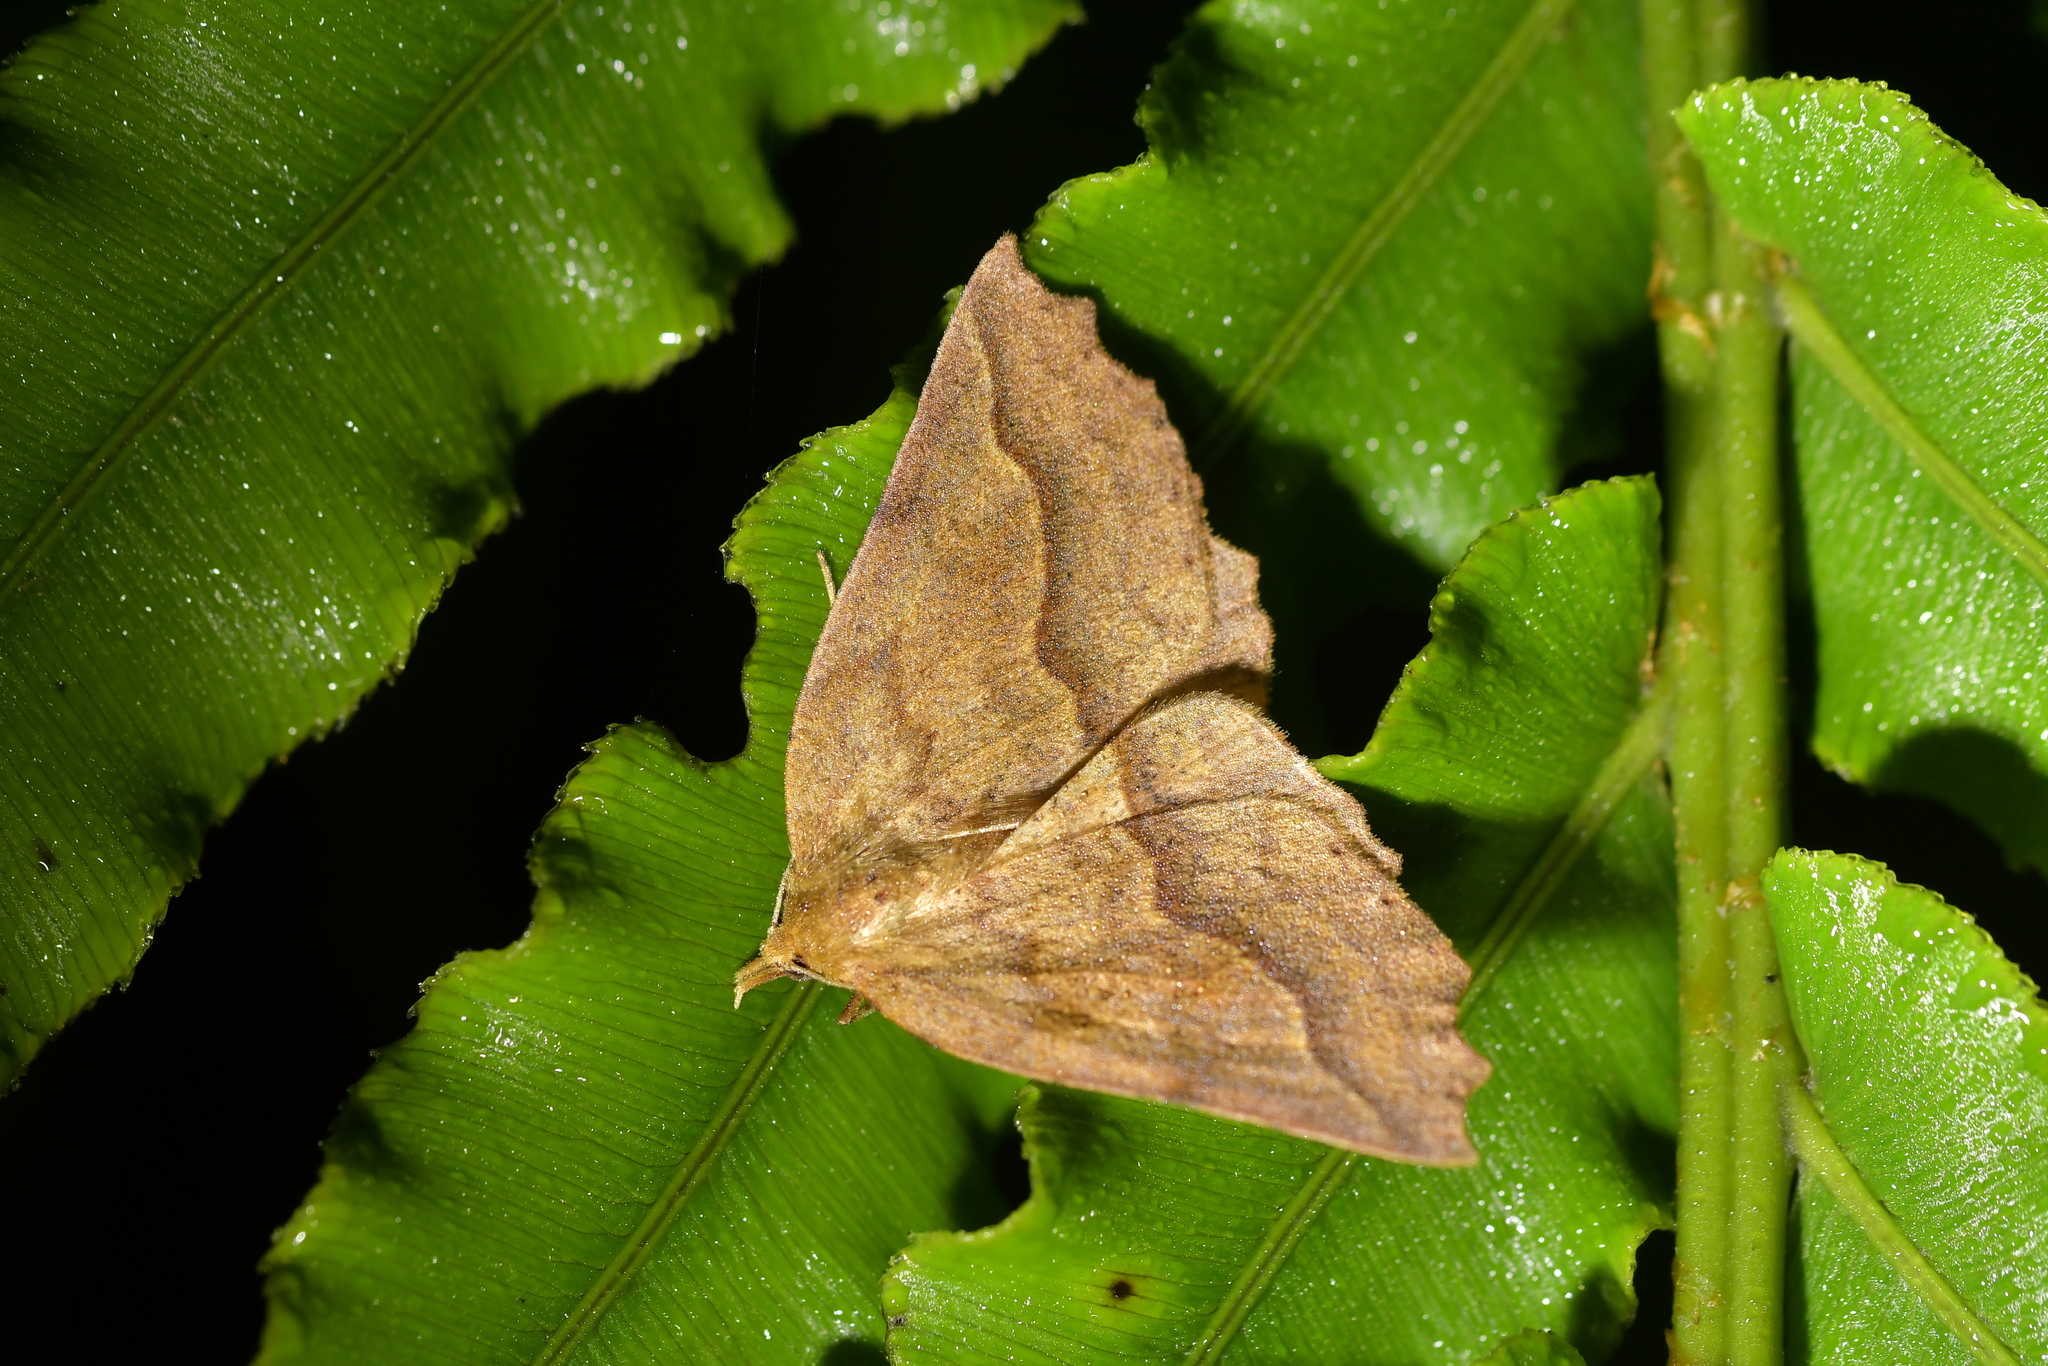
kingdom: Animalia
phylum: Arthropoda
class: Insecta
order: Lepidoptera
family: Geometridae
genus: Ischalis
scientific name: Ischalis variabilis
